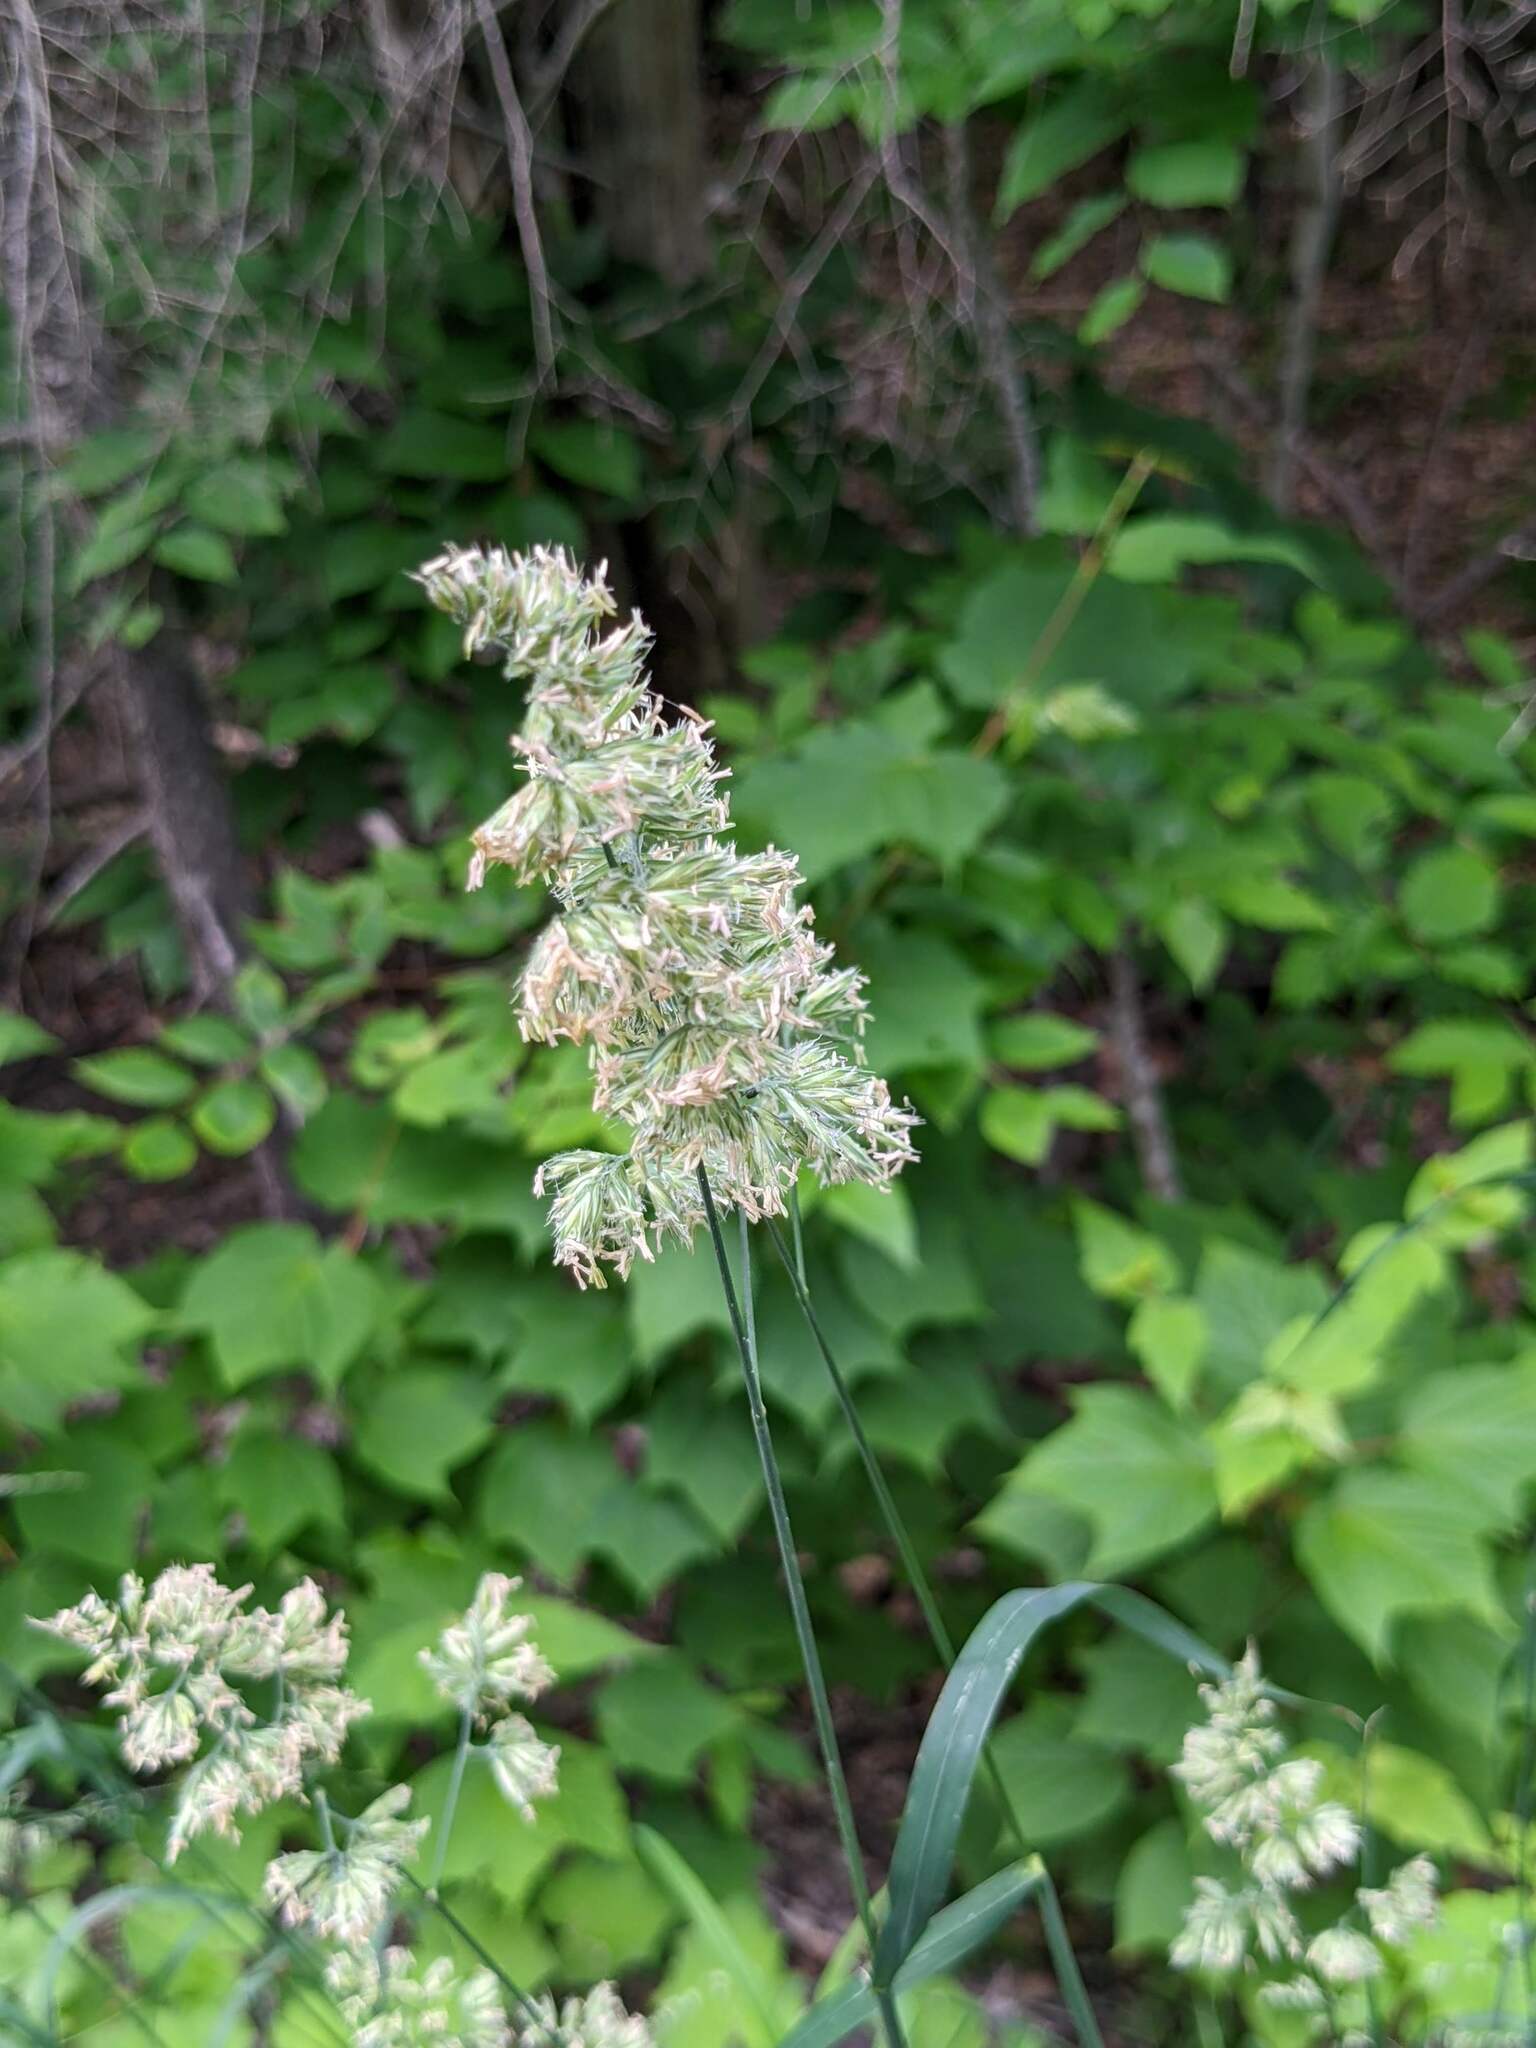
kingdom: Plantae
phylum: Tracheophyta
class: Liliopsida
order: Poales
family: Poaceae
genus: Dactylis
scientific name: Dactylis glomerata
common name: Orchardgrass
